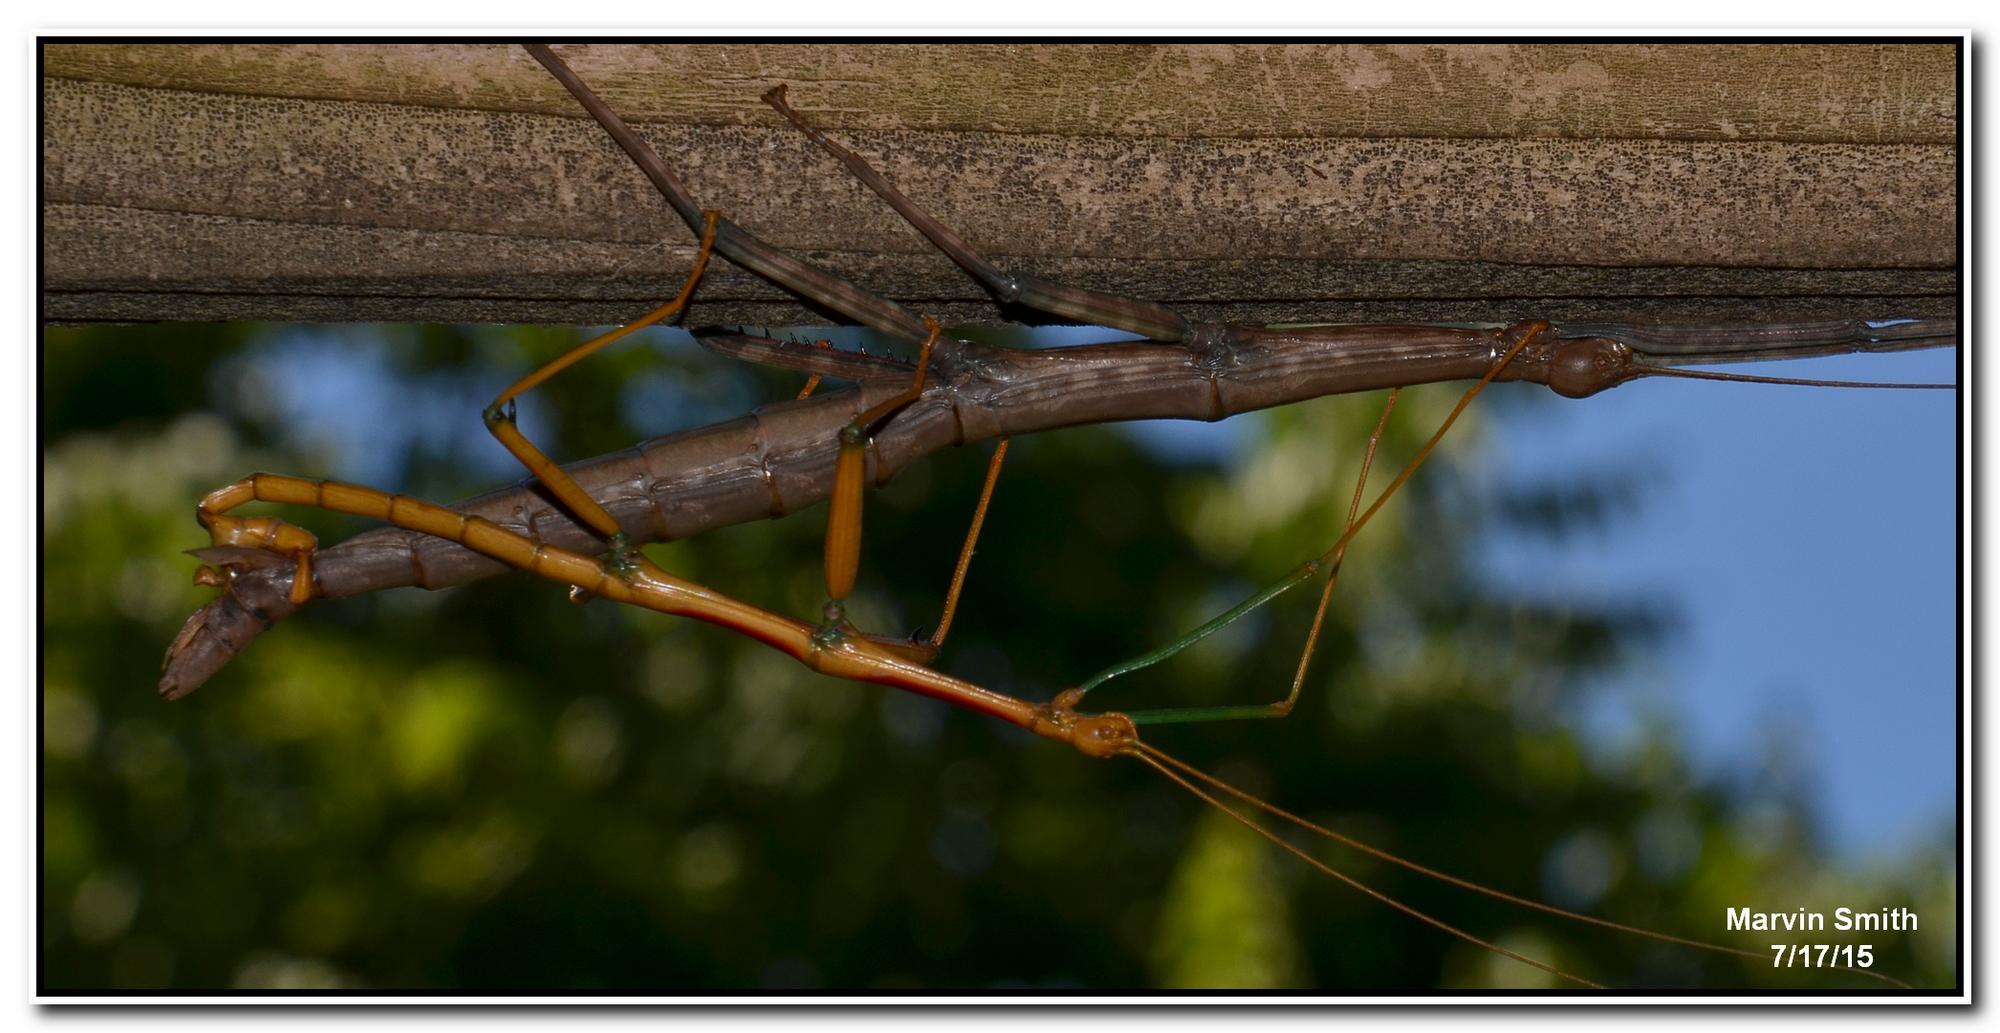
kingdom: Animalia
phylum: Arthropoda
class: Insecta
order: Phasmida
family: Diapheromeridae
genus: Megaphasma
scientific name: Megaphasma denticrus
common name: Giant walkingstick
